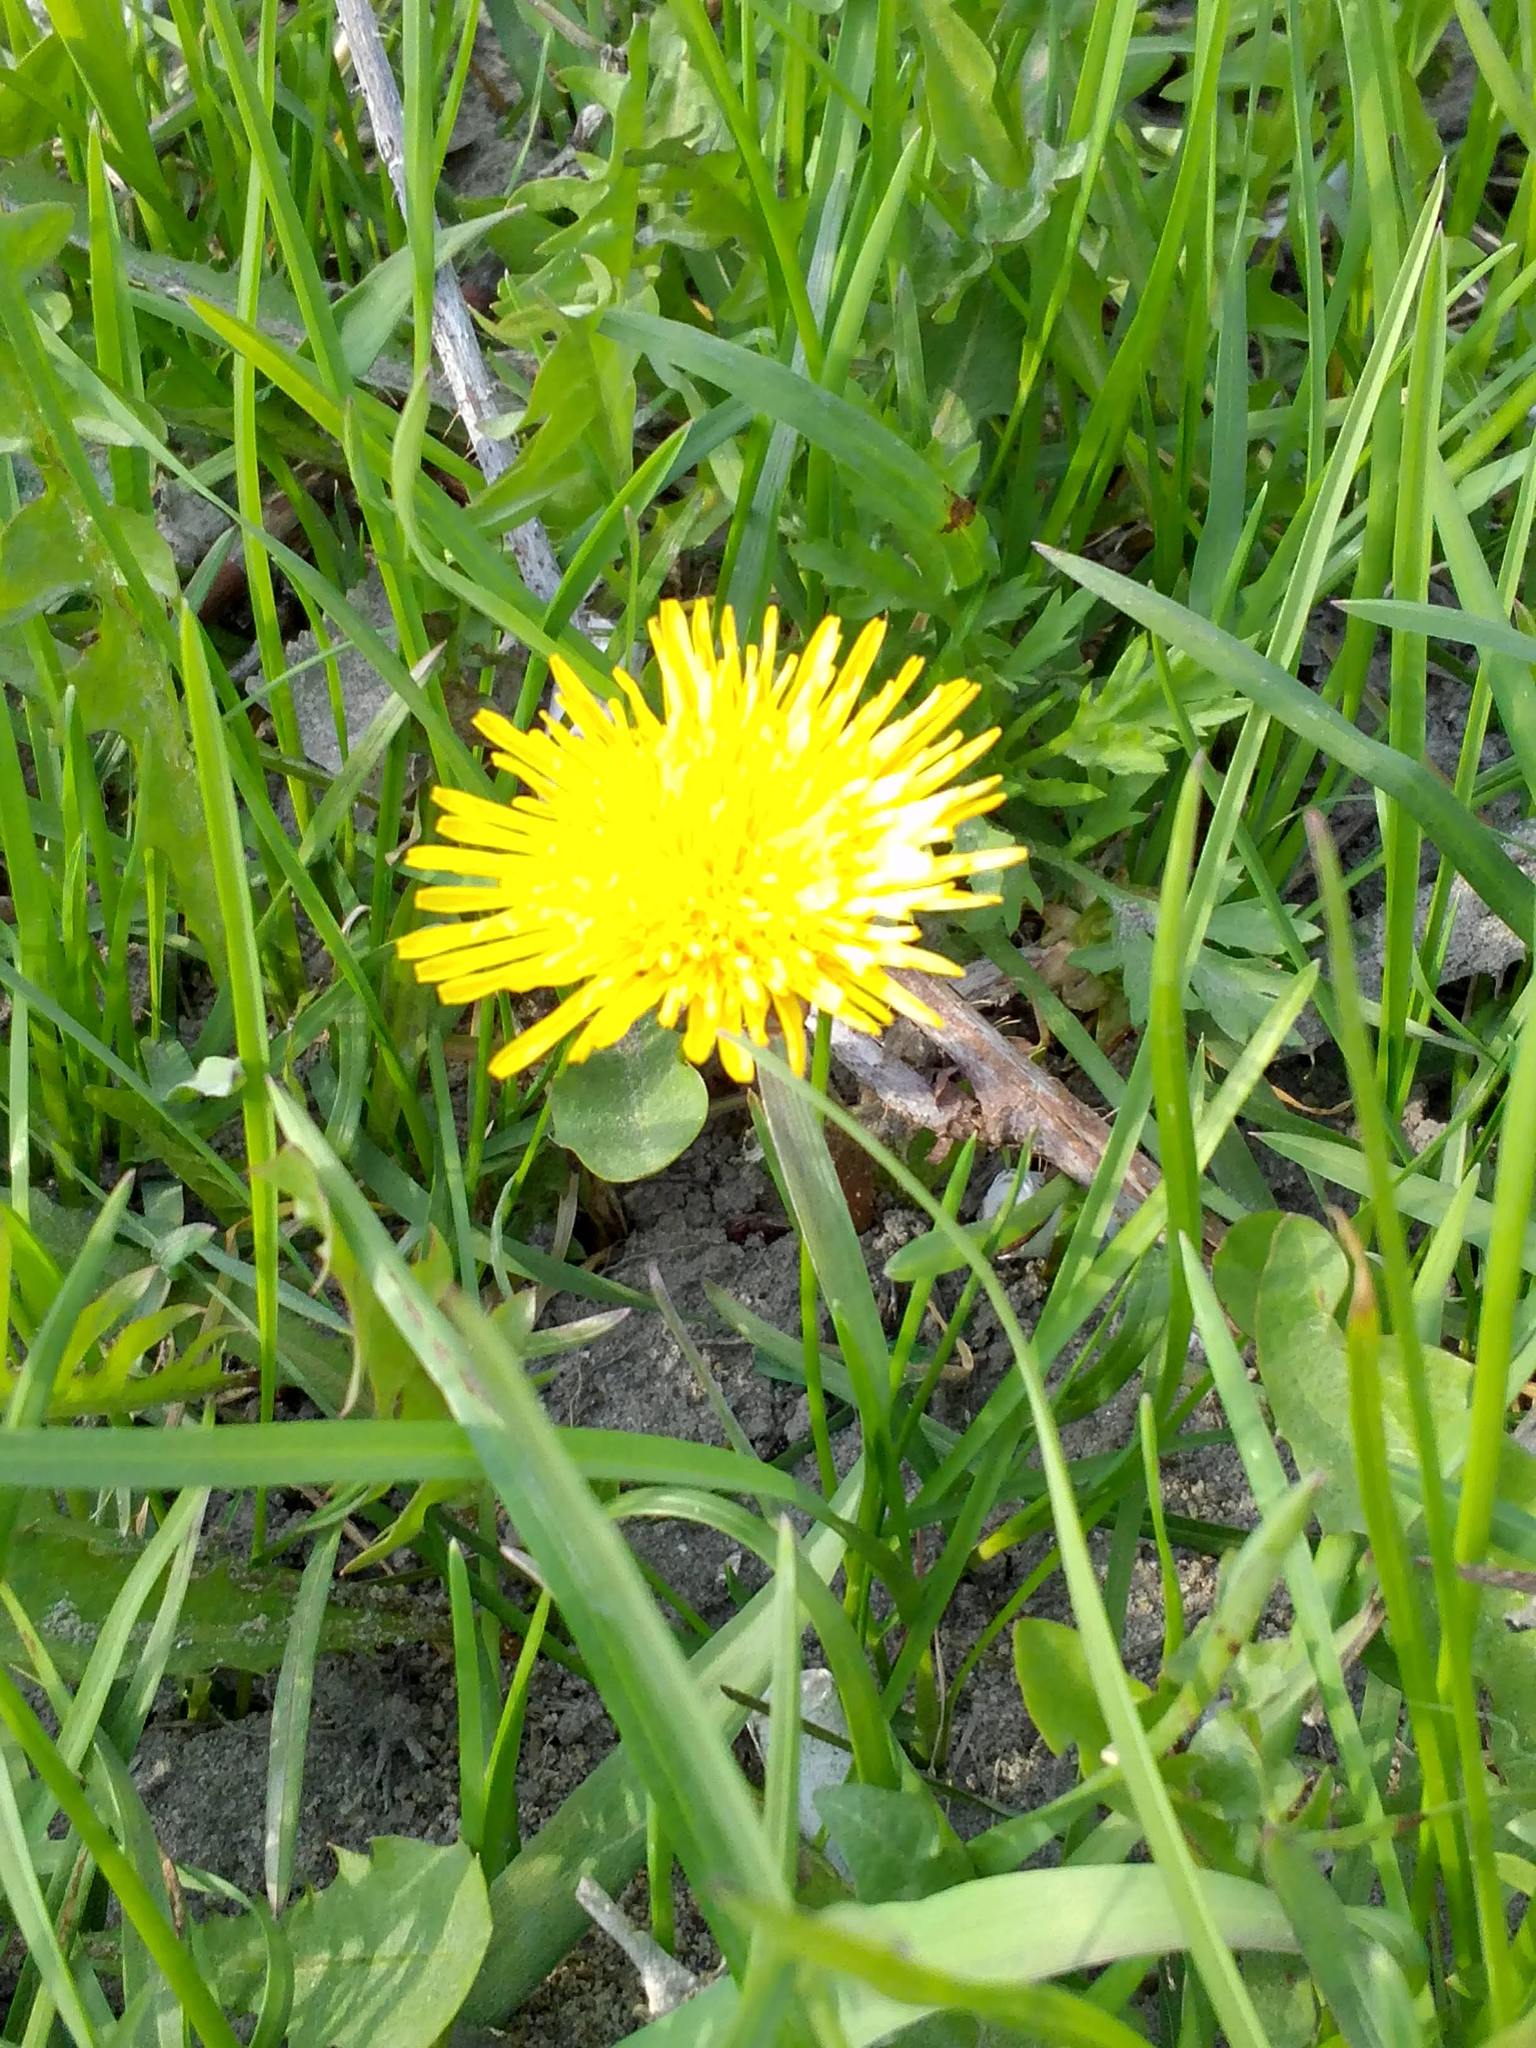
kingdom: Plantae
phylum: Tracheophyta
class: Magnoliopsida
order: Asterales
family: Asteraceae
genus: Taraxacum
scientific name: Taraxacum officinale
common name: Common dandelion
